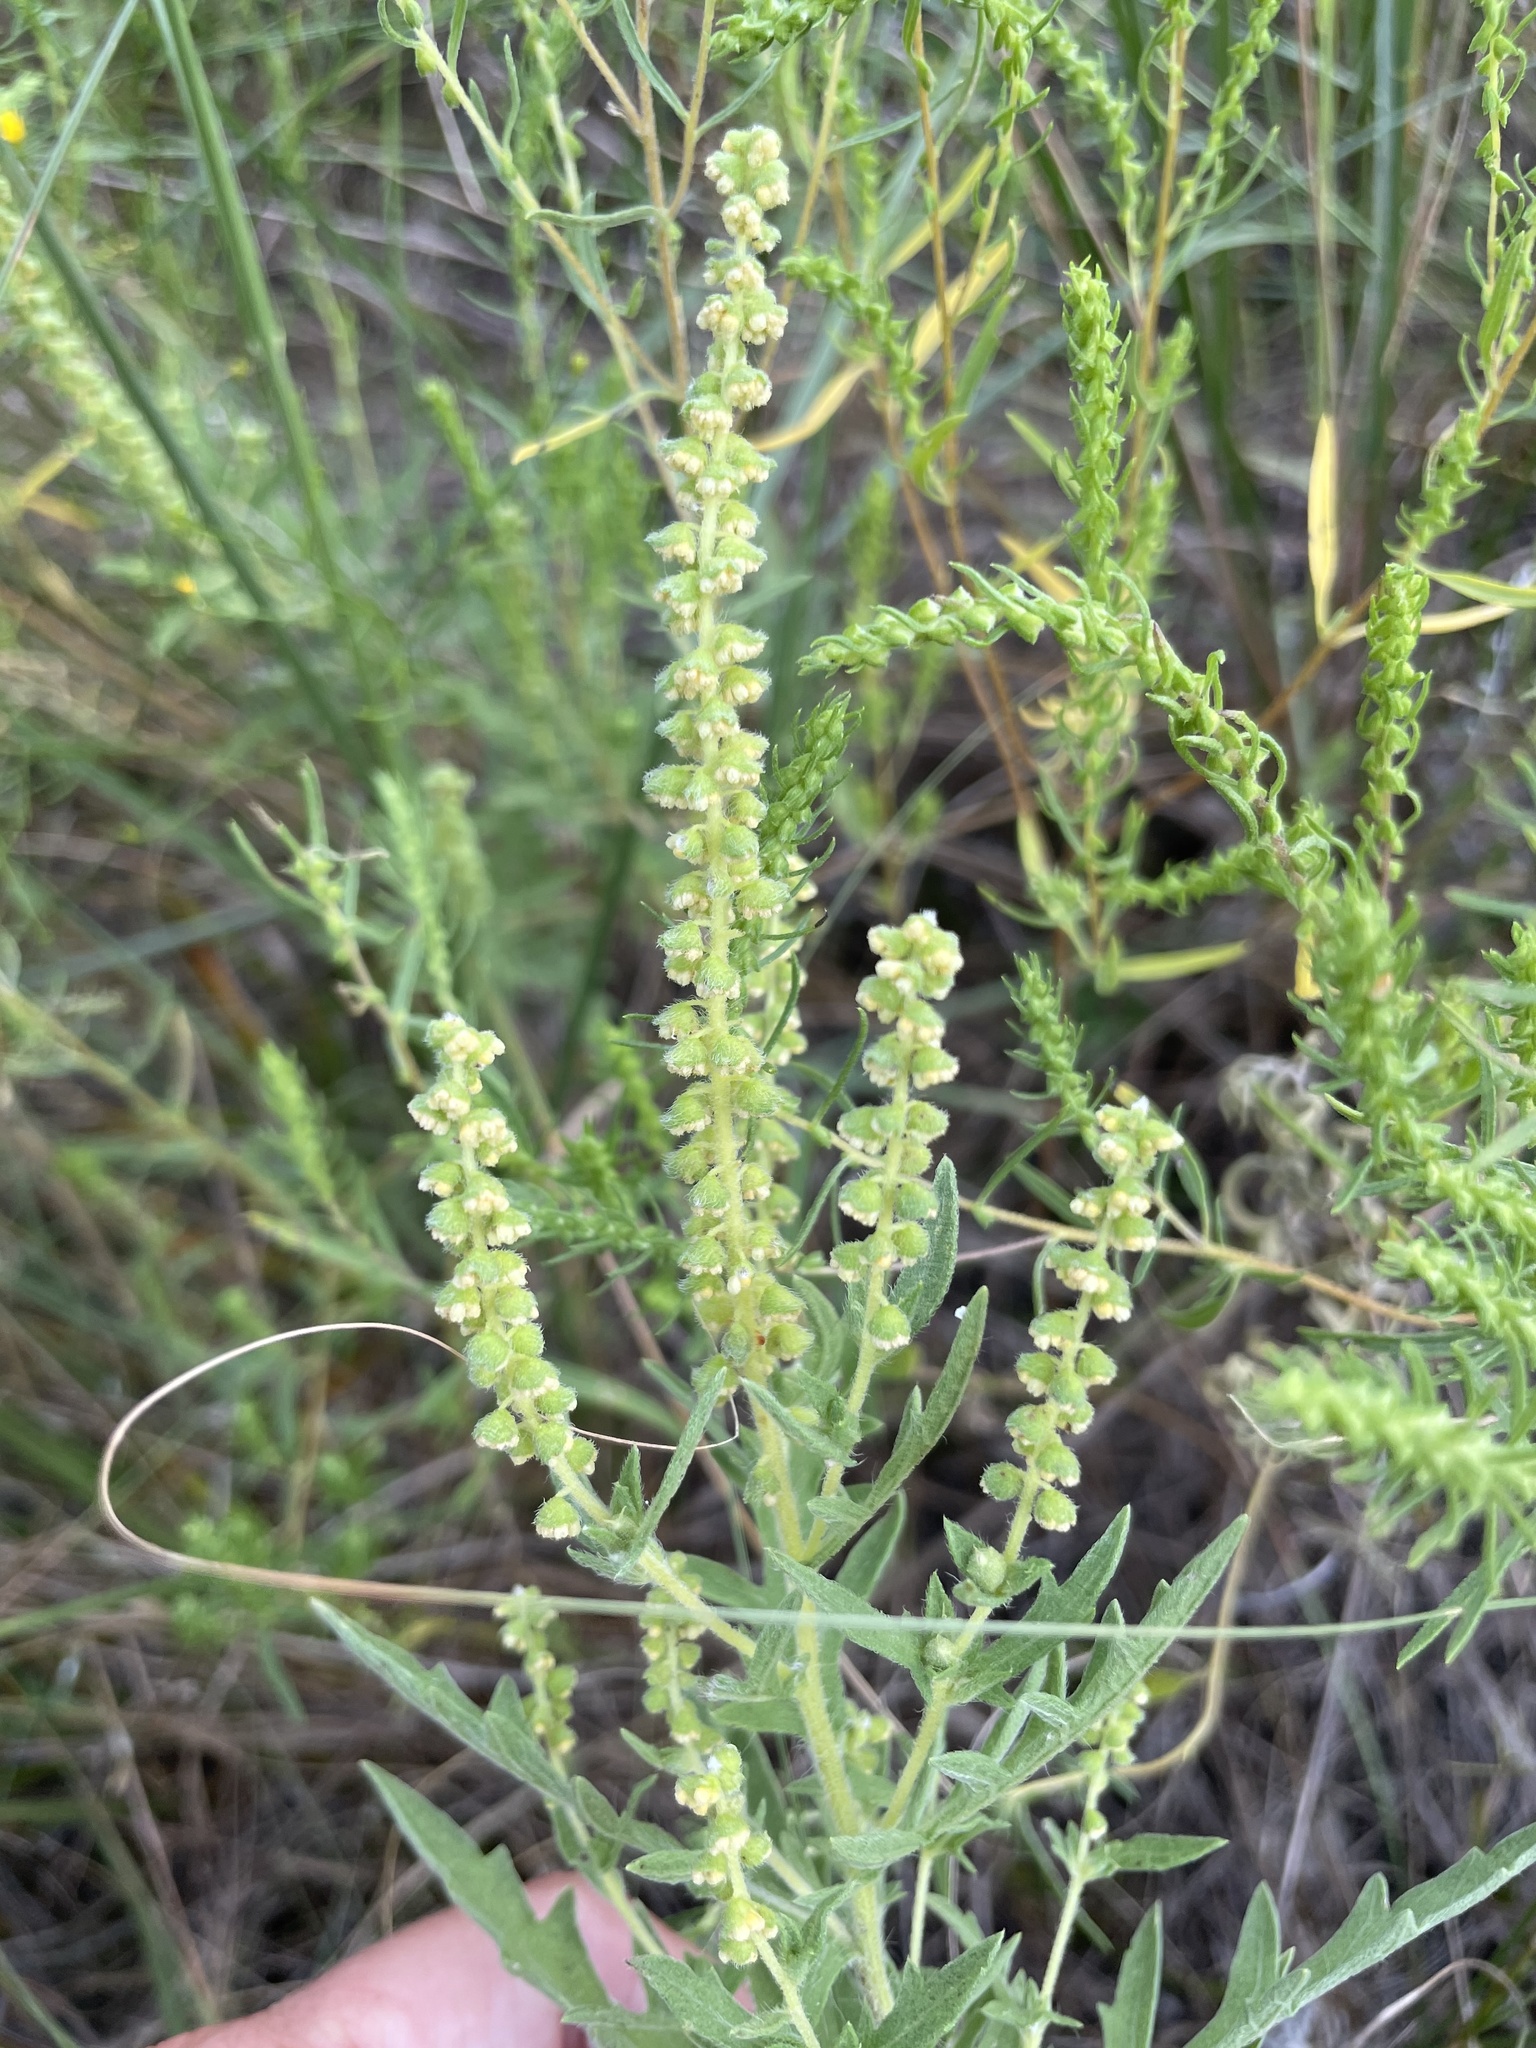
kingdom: Plantae
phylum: Tracheophyta
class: Magnoliopsida
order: Asterales
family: Asteraceae
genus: Ambrosia
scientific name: Ambrosia psilostachya
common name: Perennial ragweed
